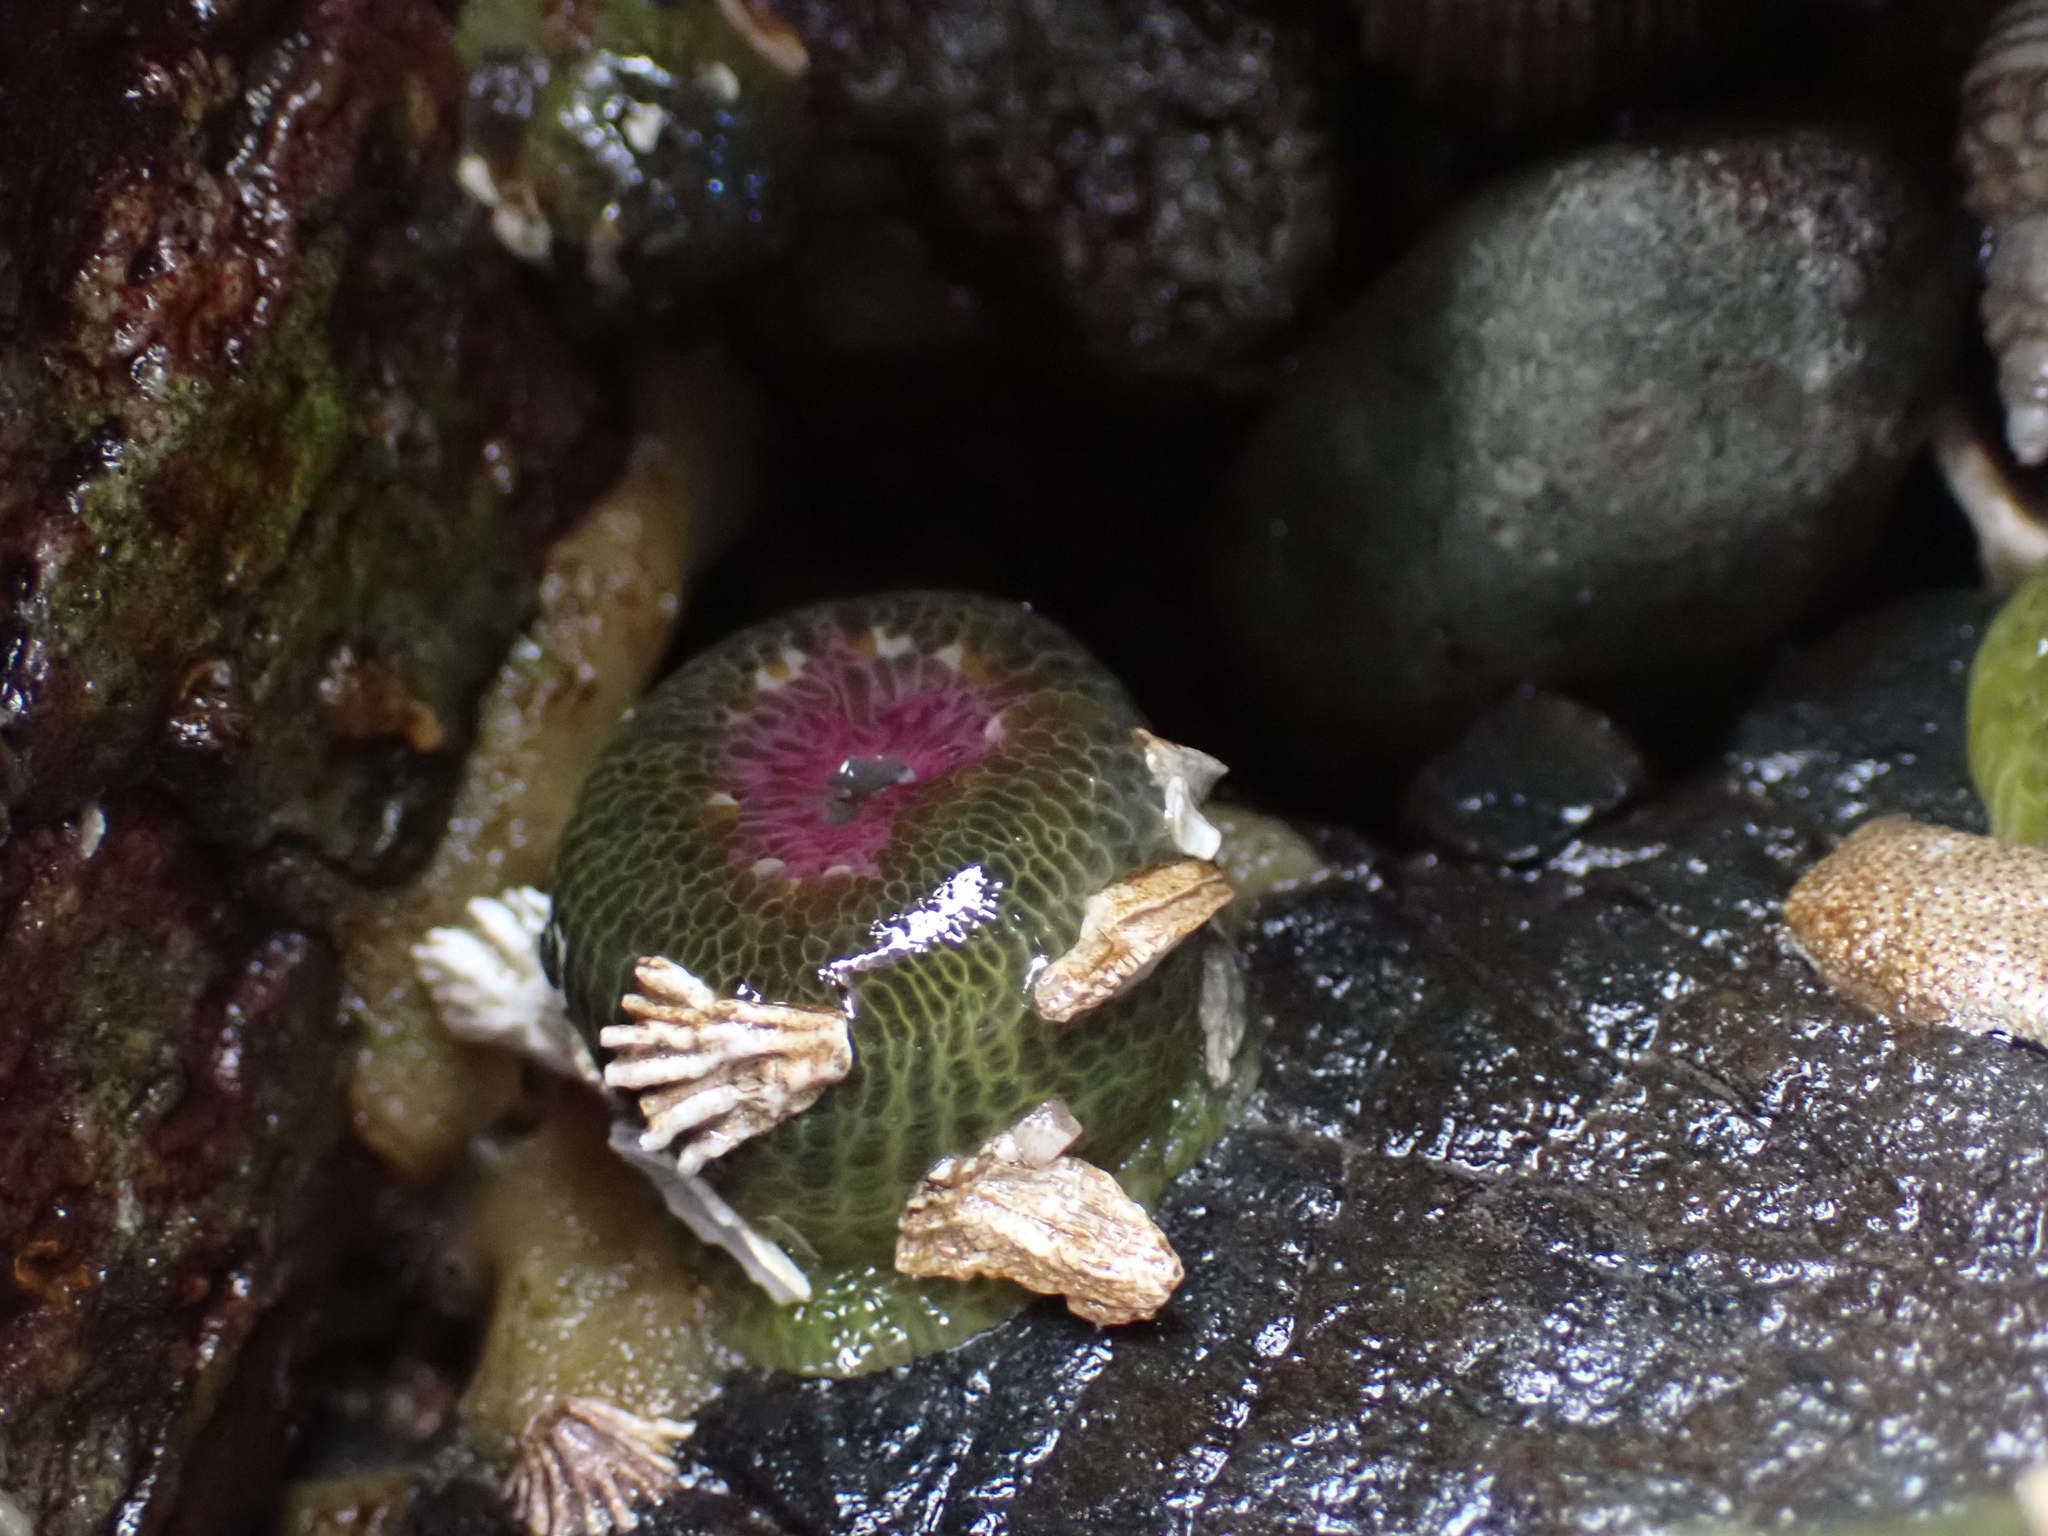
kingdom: Animalia
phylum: Cnidaria
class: Anthozoa
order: Actiniaria
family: Actiniidae
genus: Anthopleura
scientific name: Anthopleura elegantissima
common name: Clonal anemone
